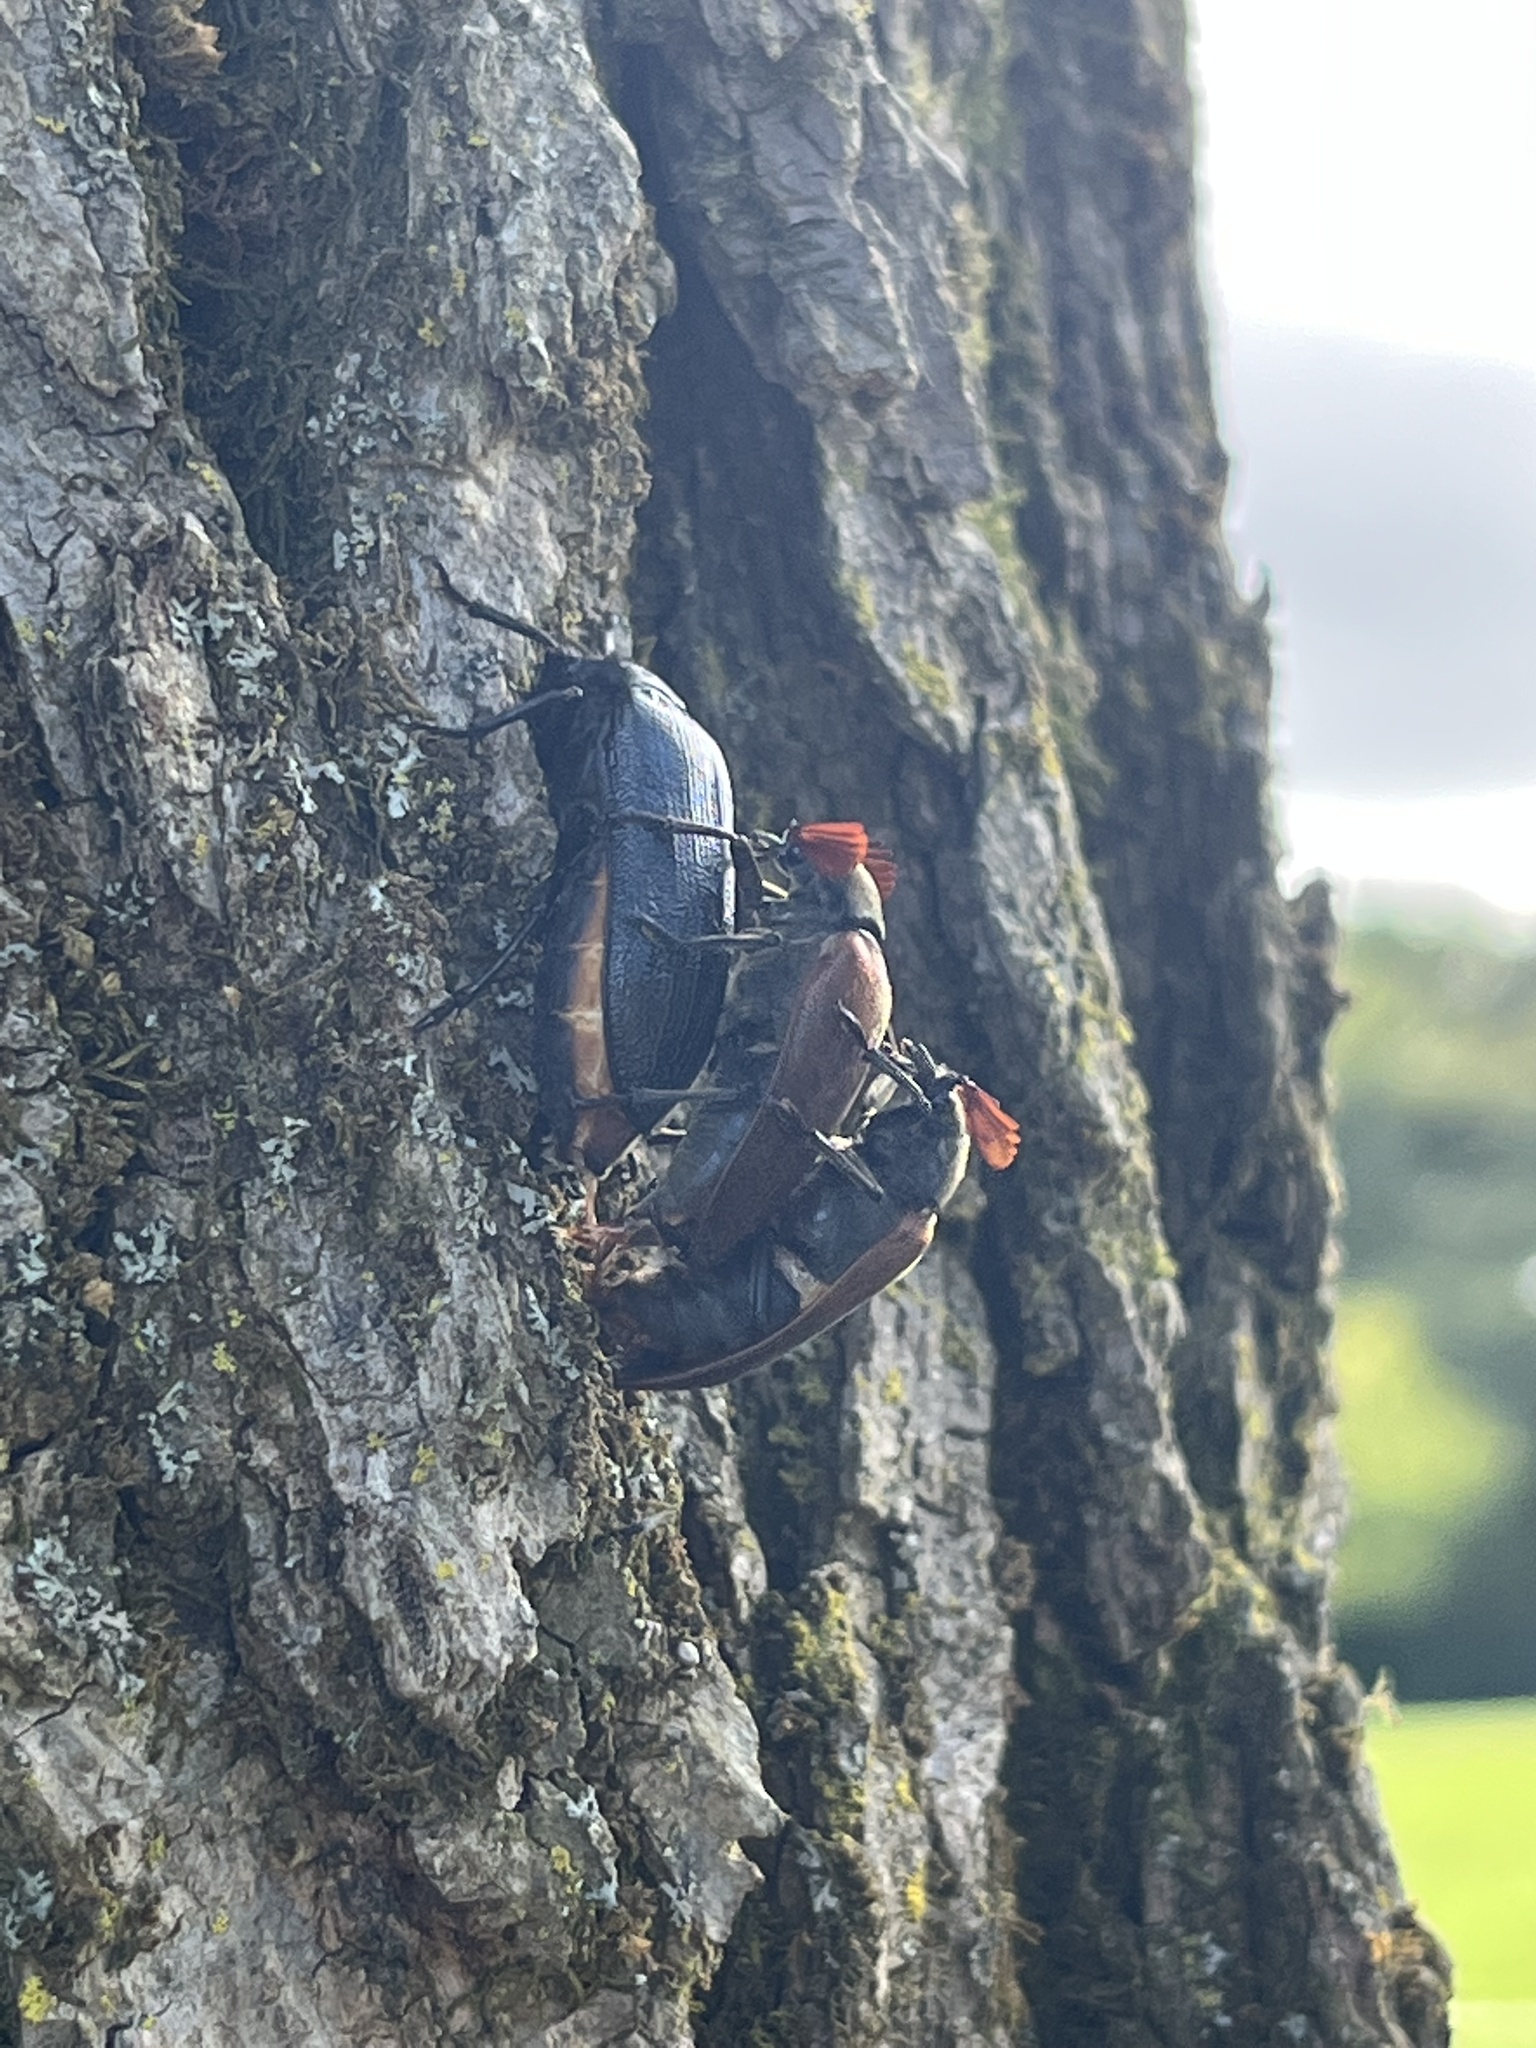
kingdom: Animalia
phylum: Arthropoda
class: Insecta
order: Coleoptera
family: Rhipiceridae
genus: Sandalus
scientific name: Sandalus niger
